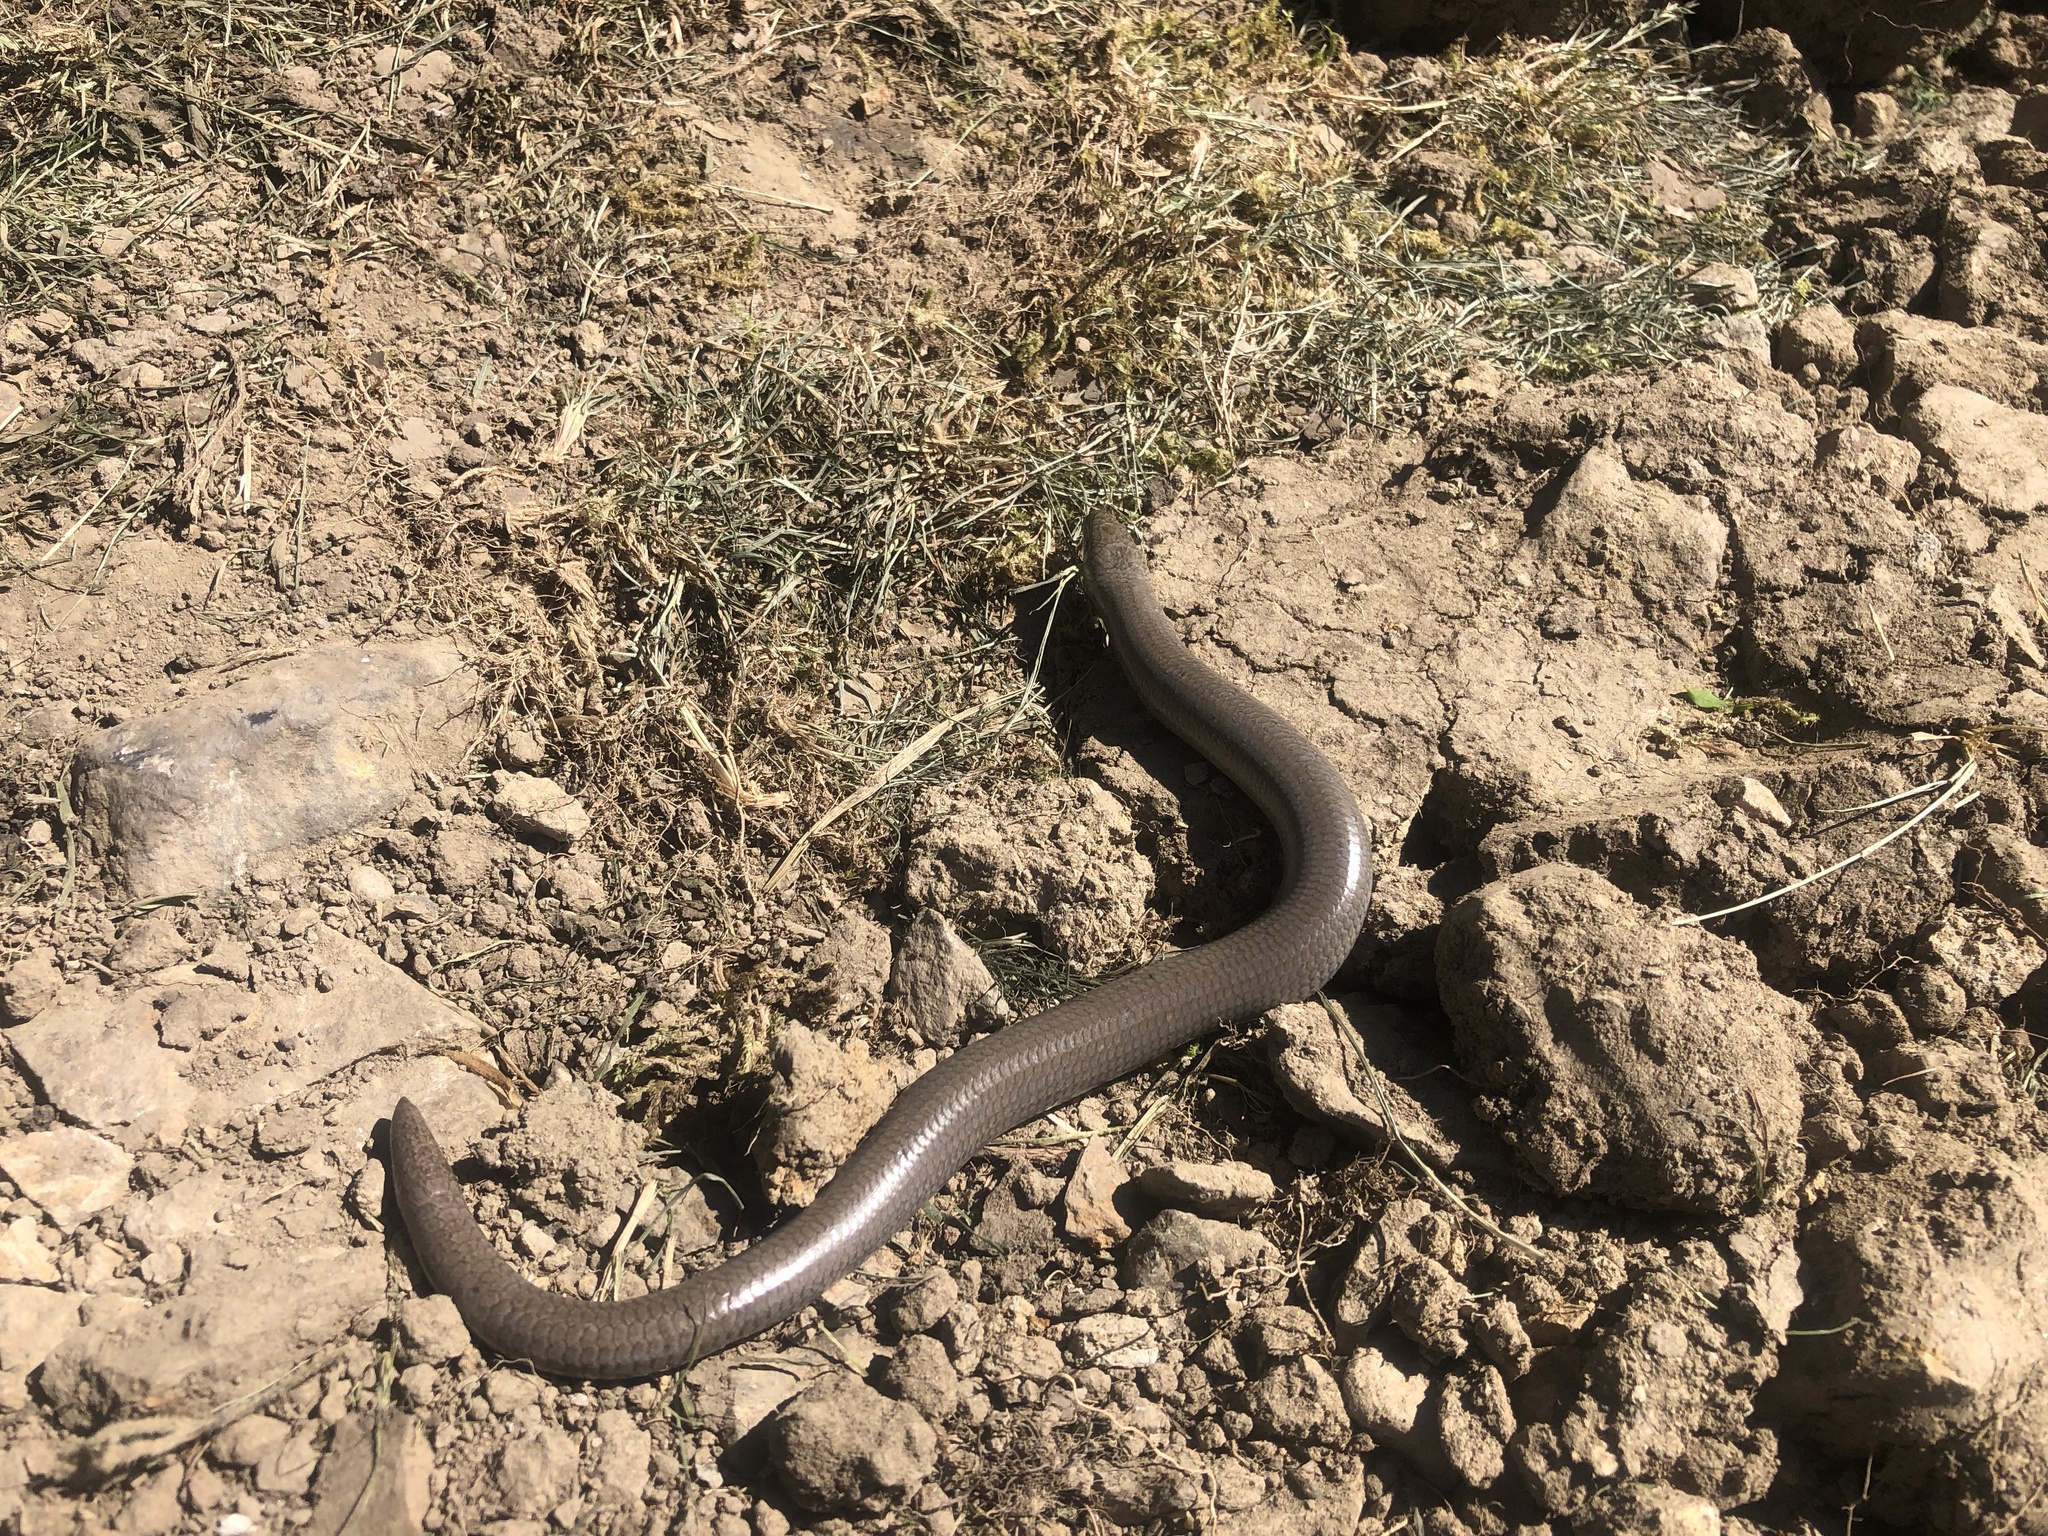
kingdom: Animalia
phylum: Chordata
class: Squamata
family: Anguidae
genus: Anguis
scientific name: Anguis fragilis
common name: Slow worm
